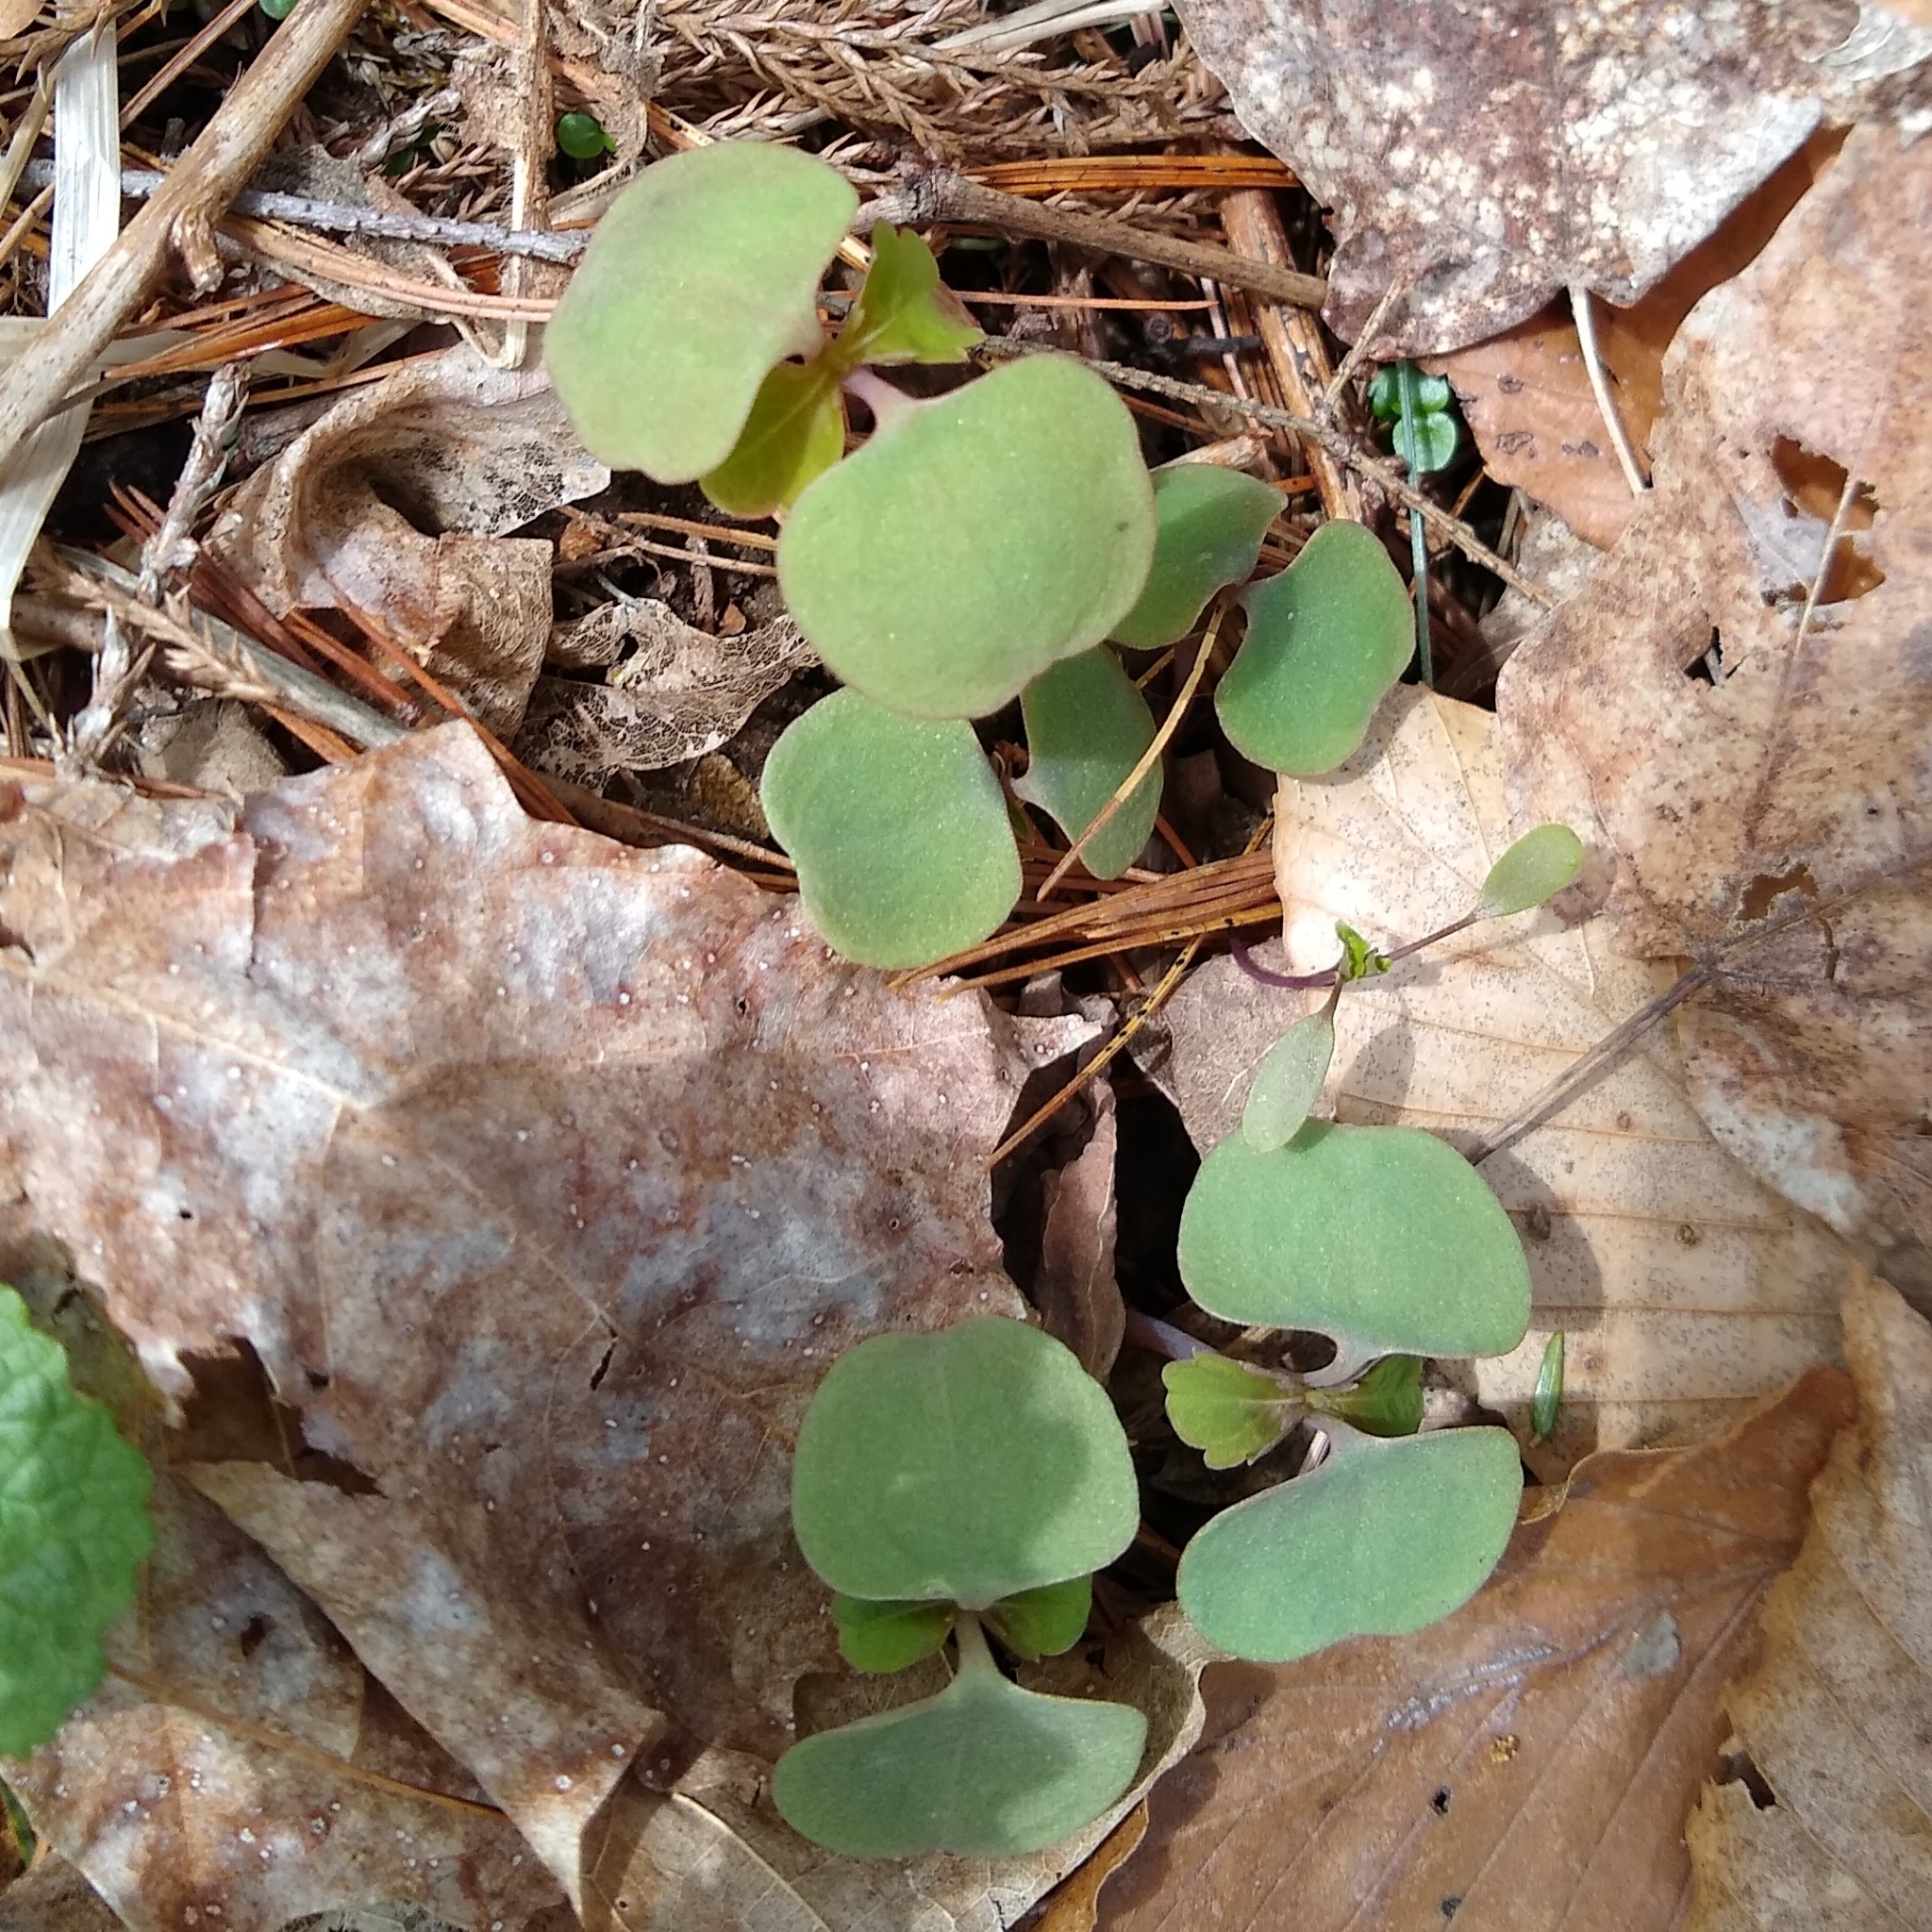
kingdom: Plantae
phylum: Tracheophyta
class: Magnoliopsida
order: Ericales
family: Balsaminaceae
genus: Impatiens
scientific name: Impatiens capensis
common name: Orange balsam
